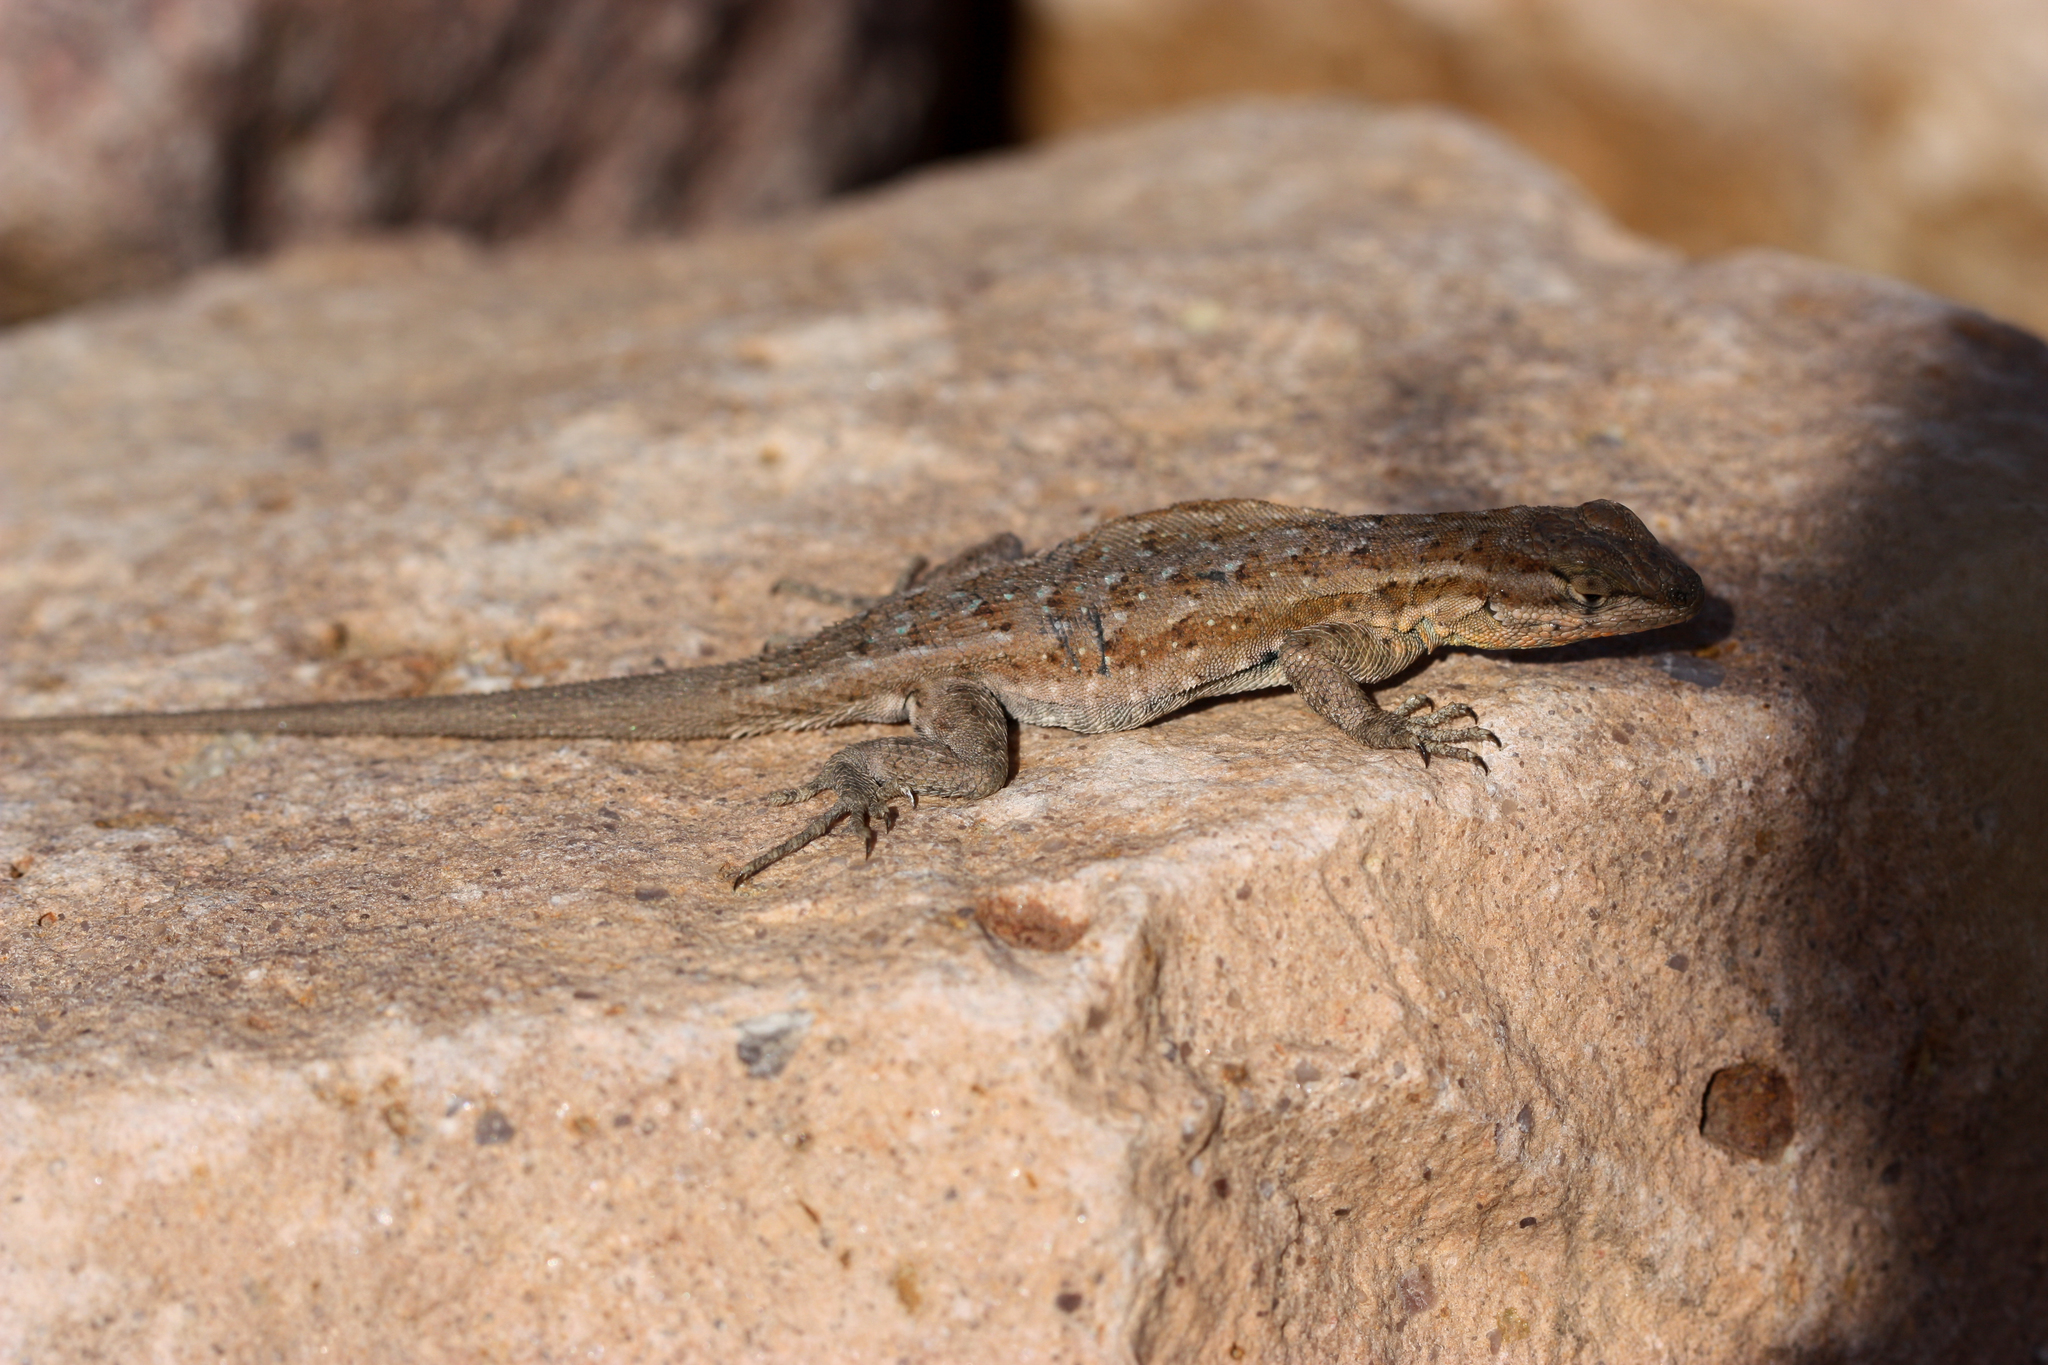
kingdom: Animalia
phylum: Chordata
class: Squamata
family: Phrynosomatidae
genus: Uta
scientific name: Uta stansburiana
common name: Side-blotched lizard
